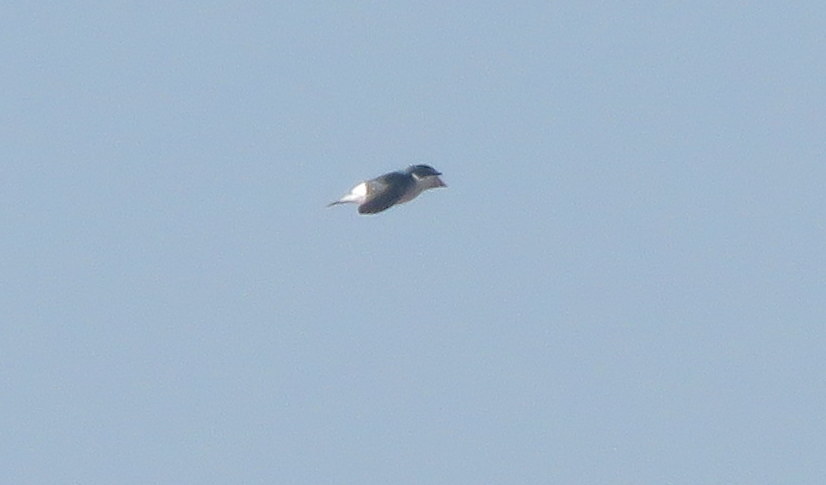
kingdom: Animalia
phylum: Chordata
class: Aves
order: Passeriformes
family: Hirundinidae
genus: Tachycineta
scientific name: Tachycineta leucorrhoa
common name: White-rumped swallow
